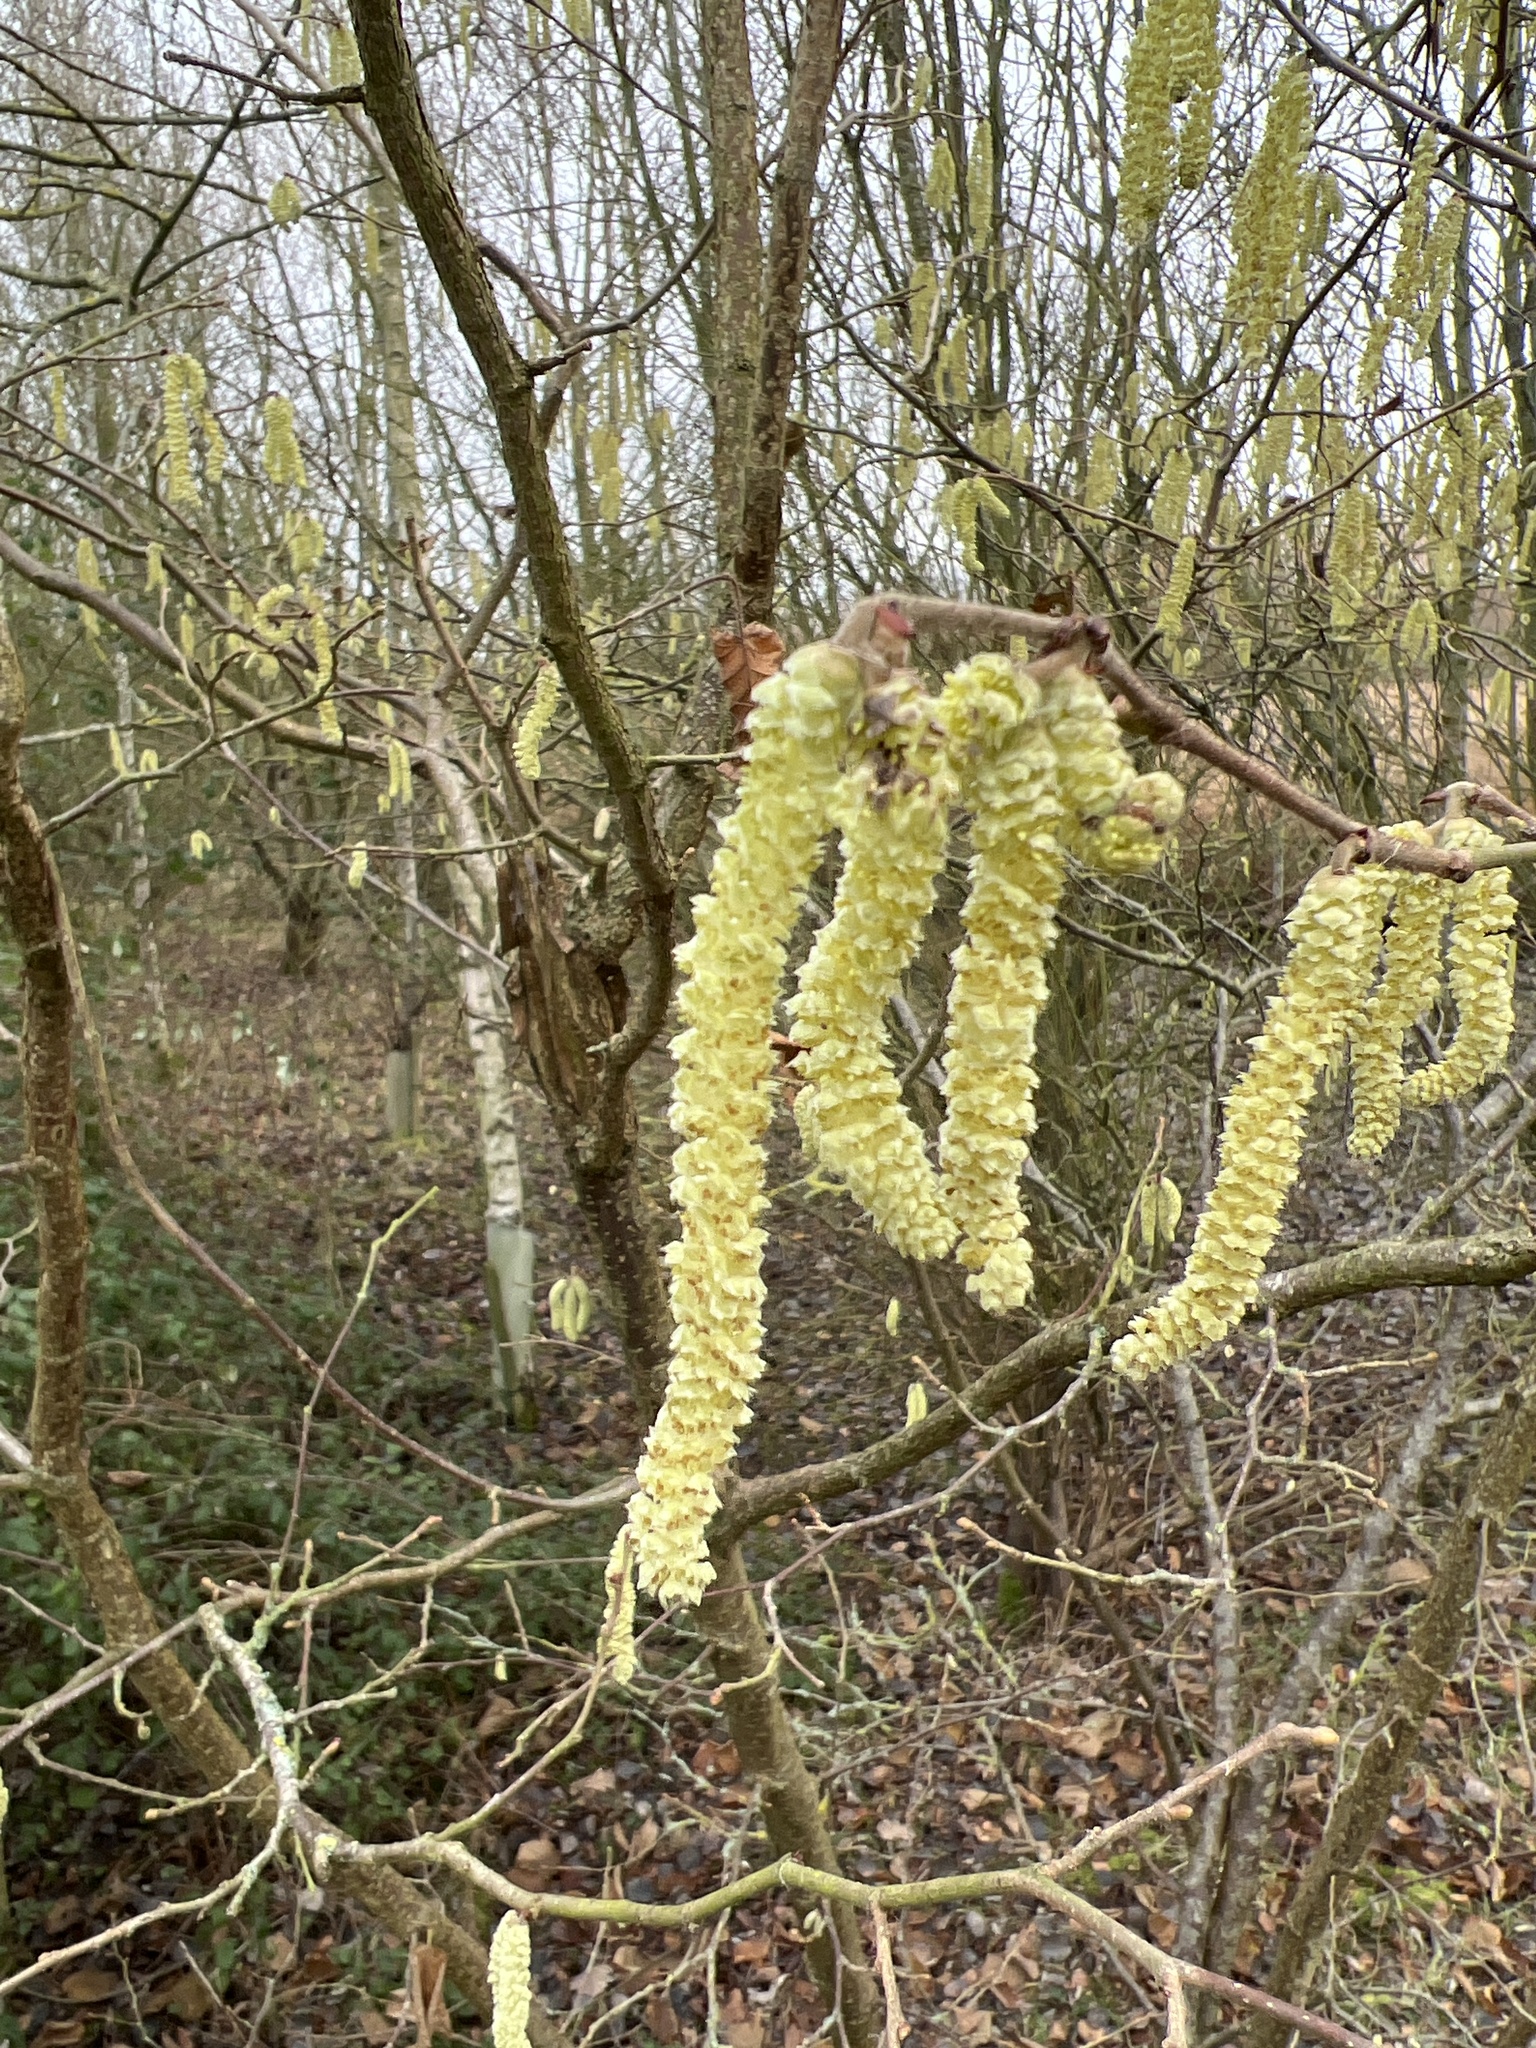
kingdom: Plantae
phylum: Tracheophyta
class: Magnoliopsida
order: Fagales
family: Betulaceae
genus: Corylus
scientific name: Corylus avellana
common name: European hazel
